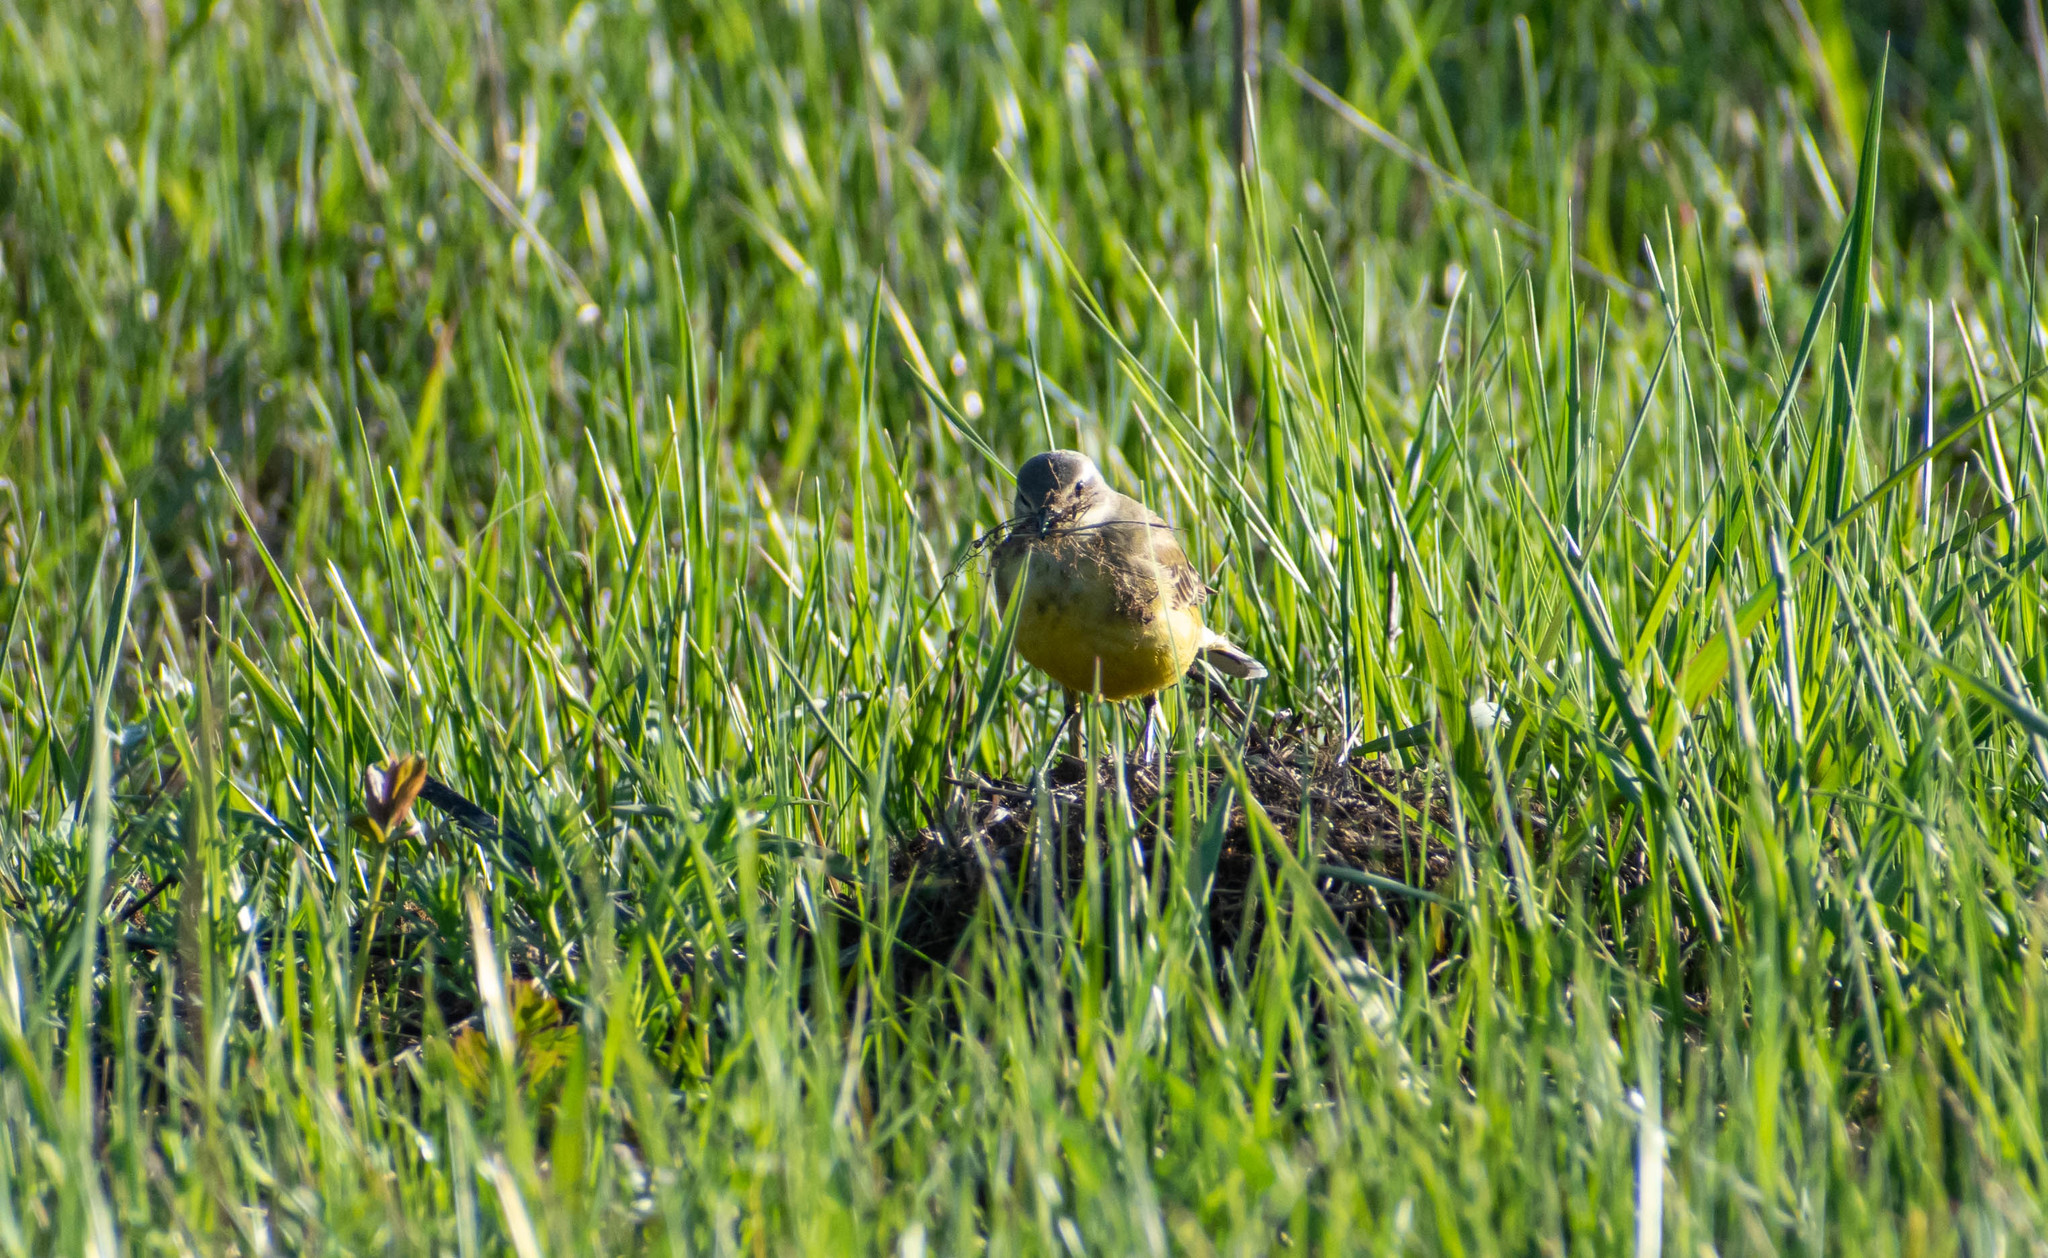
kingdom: Animalia
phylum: Chordata
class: Aves
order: Passeriformes
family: Motacillidae
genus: Motacilla
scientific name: Motacilla flava
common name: Western yellow wagtail
